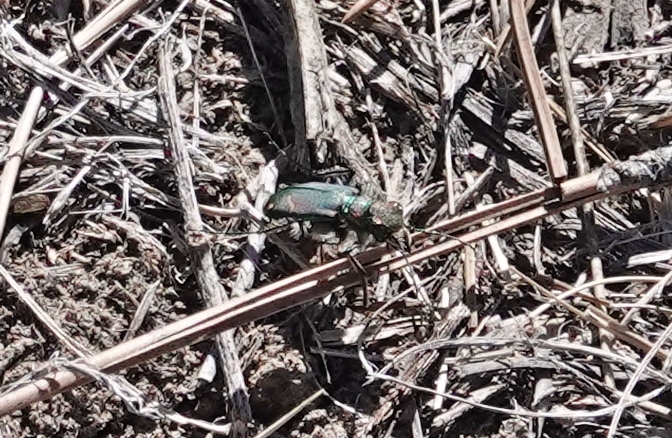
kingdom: Animalia
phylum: Arthropoda
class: Insecta
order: Coleoptera
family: Carabidae
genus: Cicindela
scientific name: Cicindela purpurea
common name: Cow path tiger beetle
